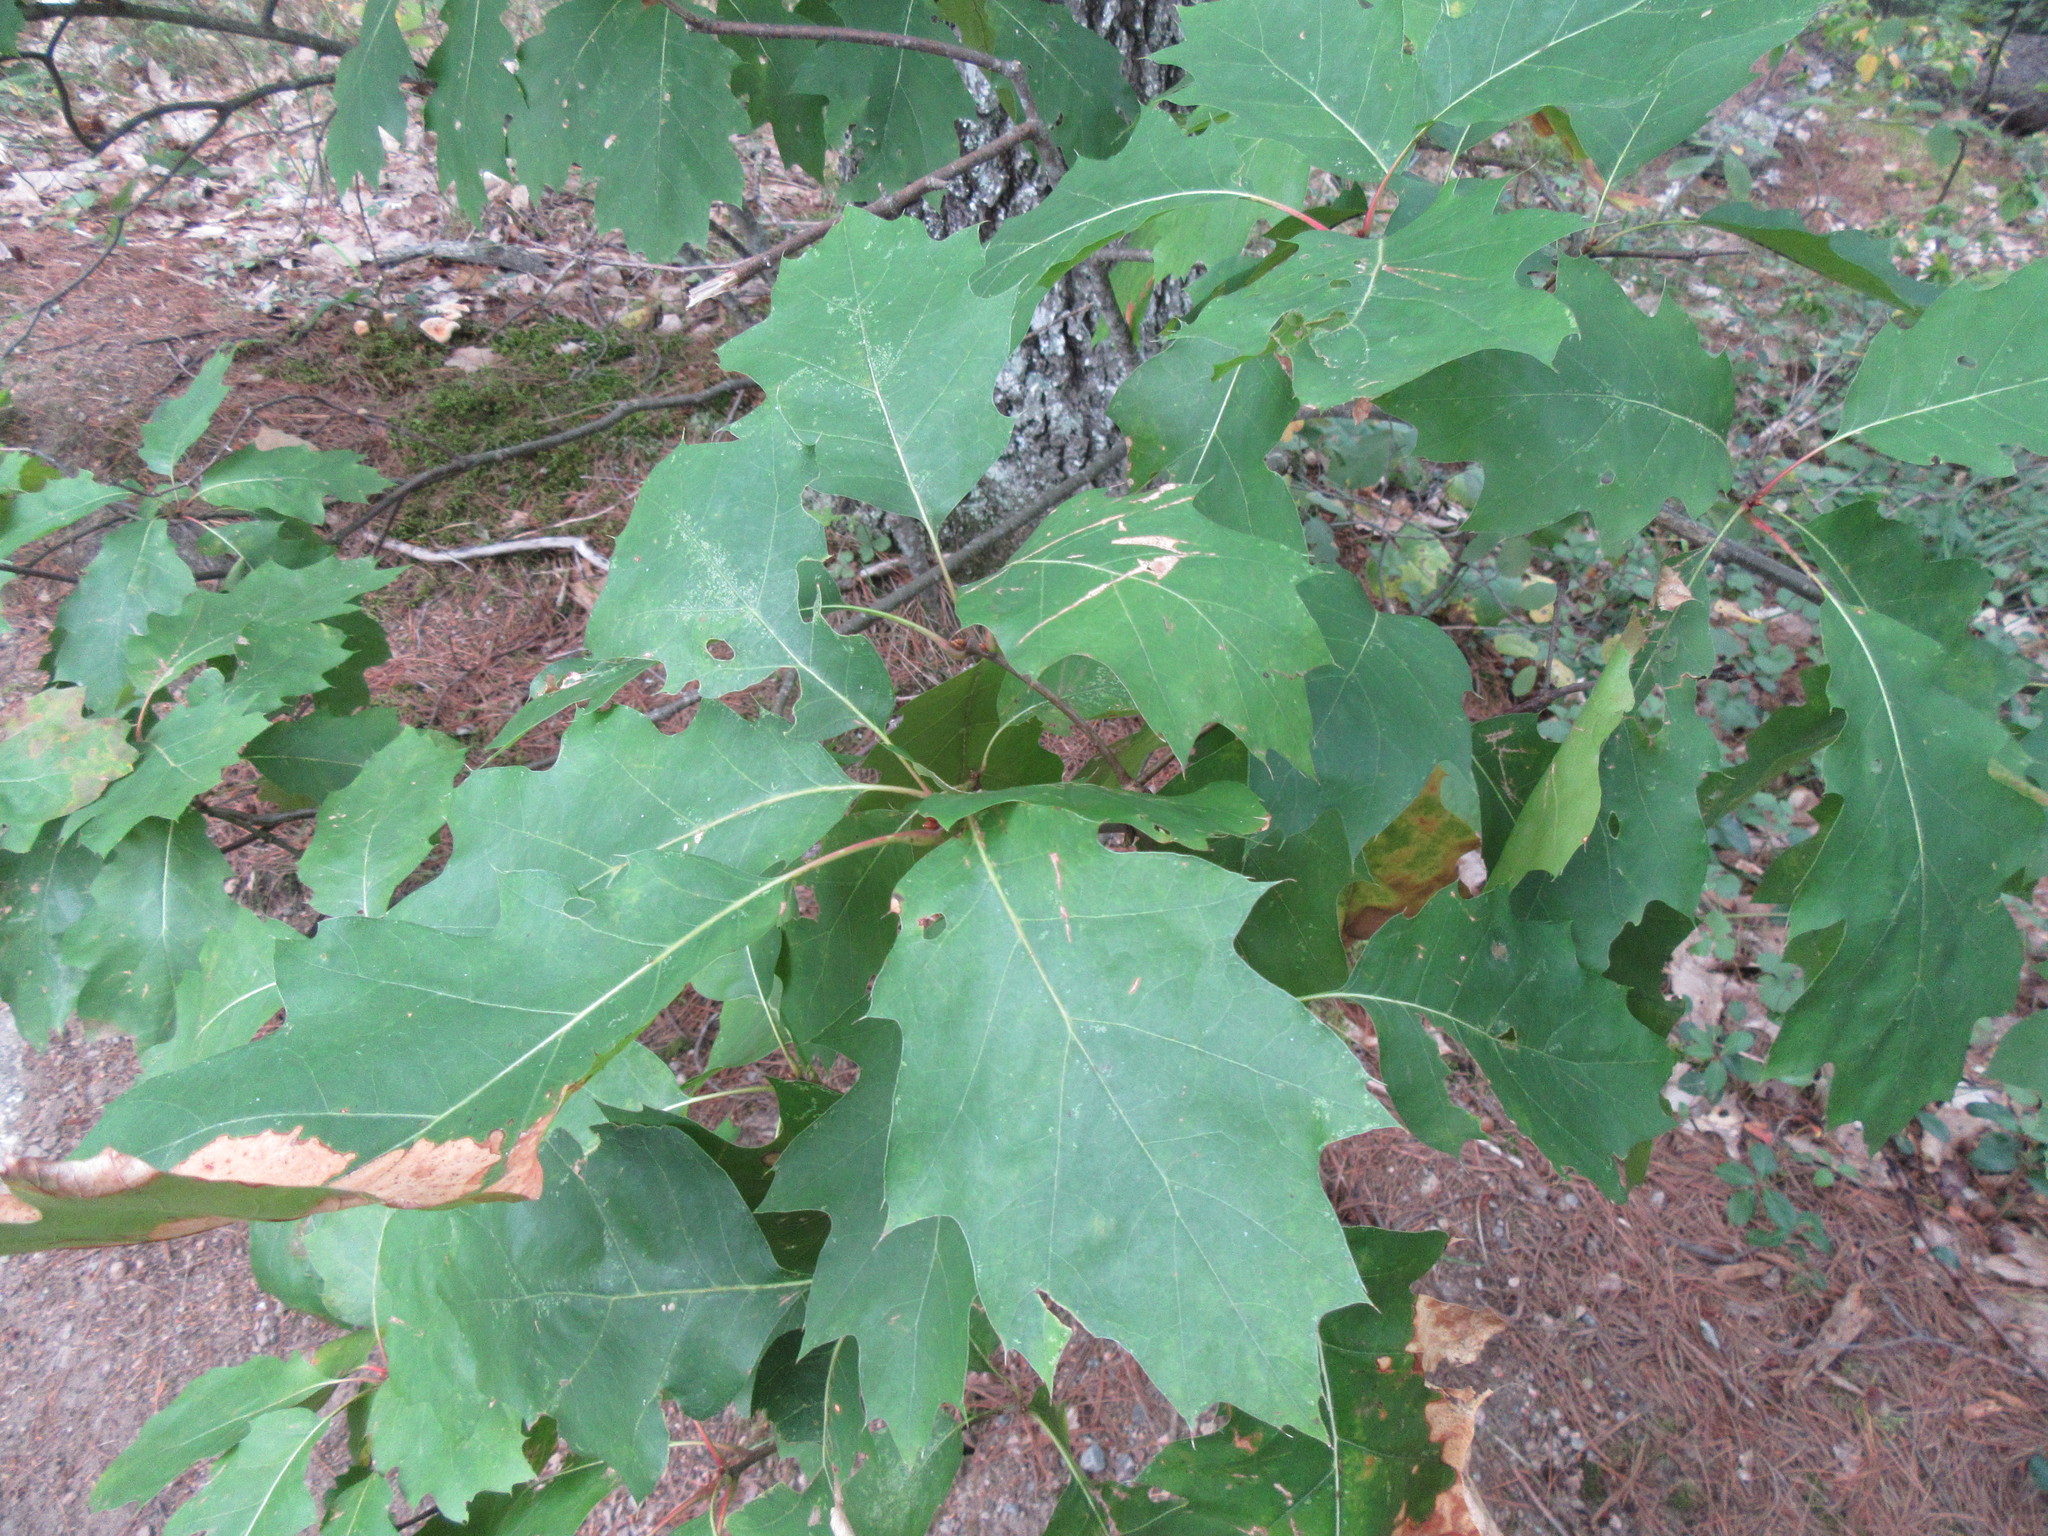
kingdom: Plantae
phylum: Tracheophyta
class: Magnoliopsida
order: Fagales
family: Fagaceae
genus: Quercus
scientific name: Quercus rubra
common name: Red oak
